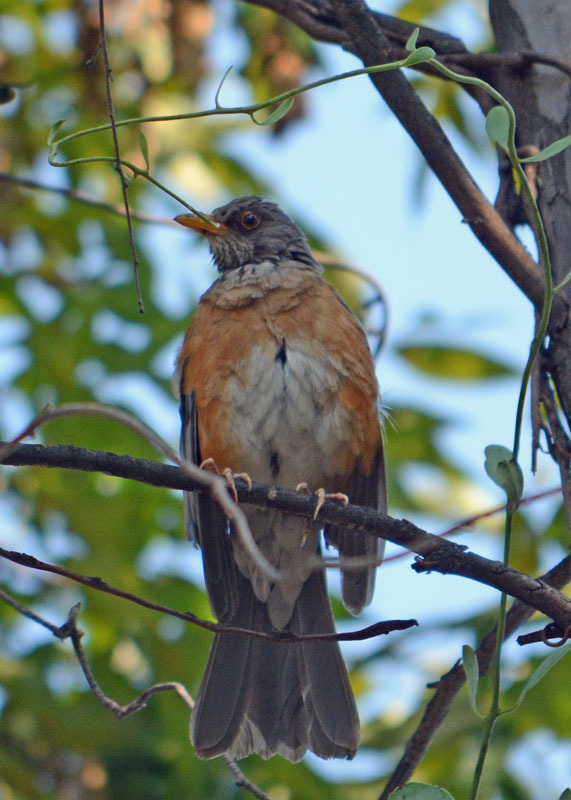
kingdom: Animalia
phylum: Chordata
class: Aves
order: Passeriformes
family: Turdidae
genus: Turdus
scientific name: Turdus rufopalliatus
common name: Rufous-backed robin
